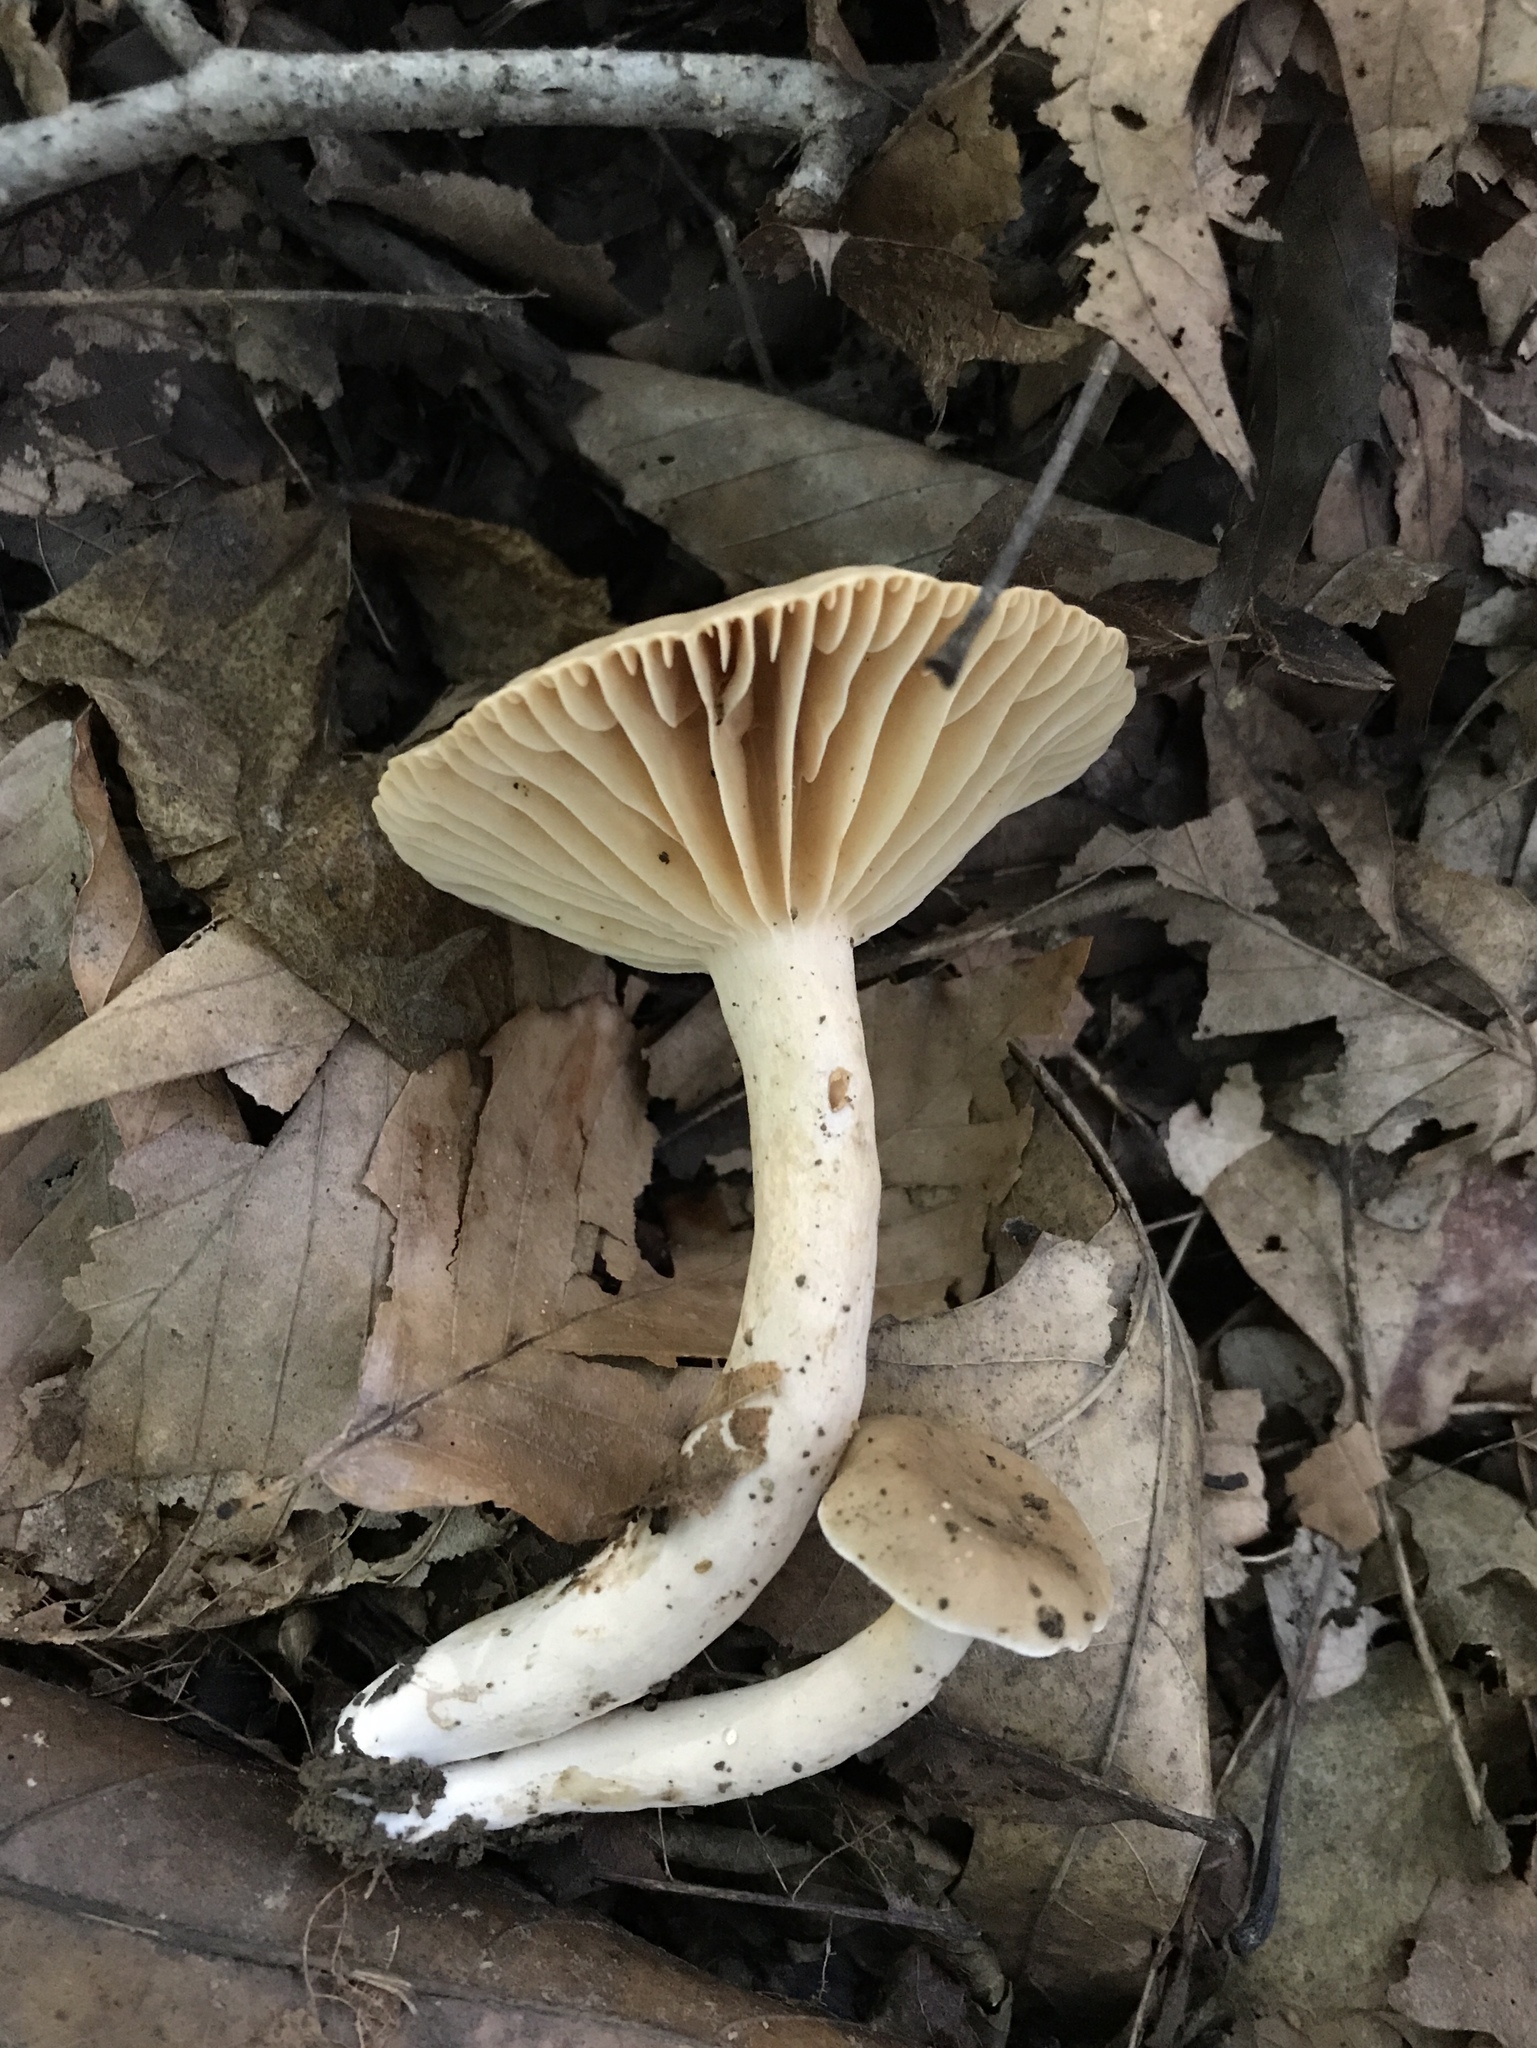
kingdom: Fungi
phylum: Basidiomycota
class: Agaricomycetes
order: Russulales
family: Russulaceae
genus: Lactarius
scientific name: Lactarius subplinthogalus
